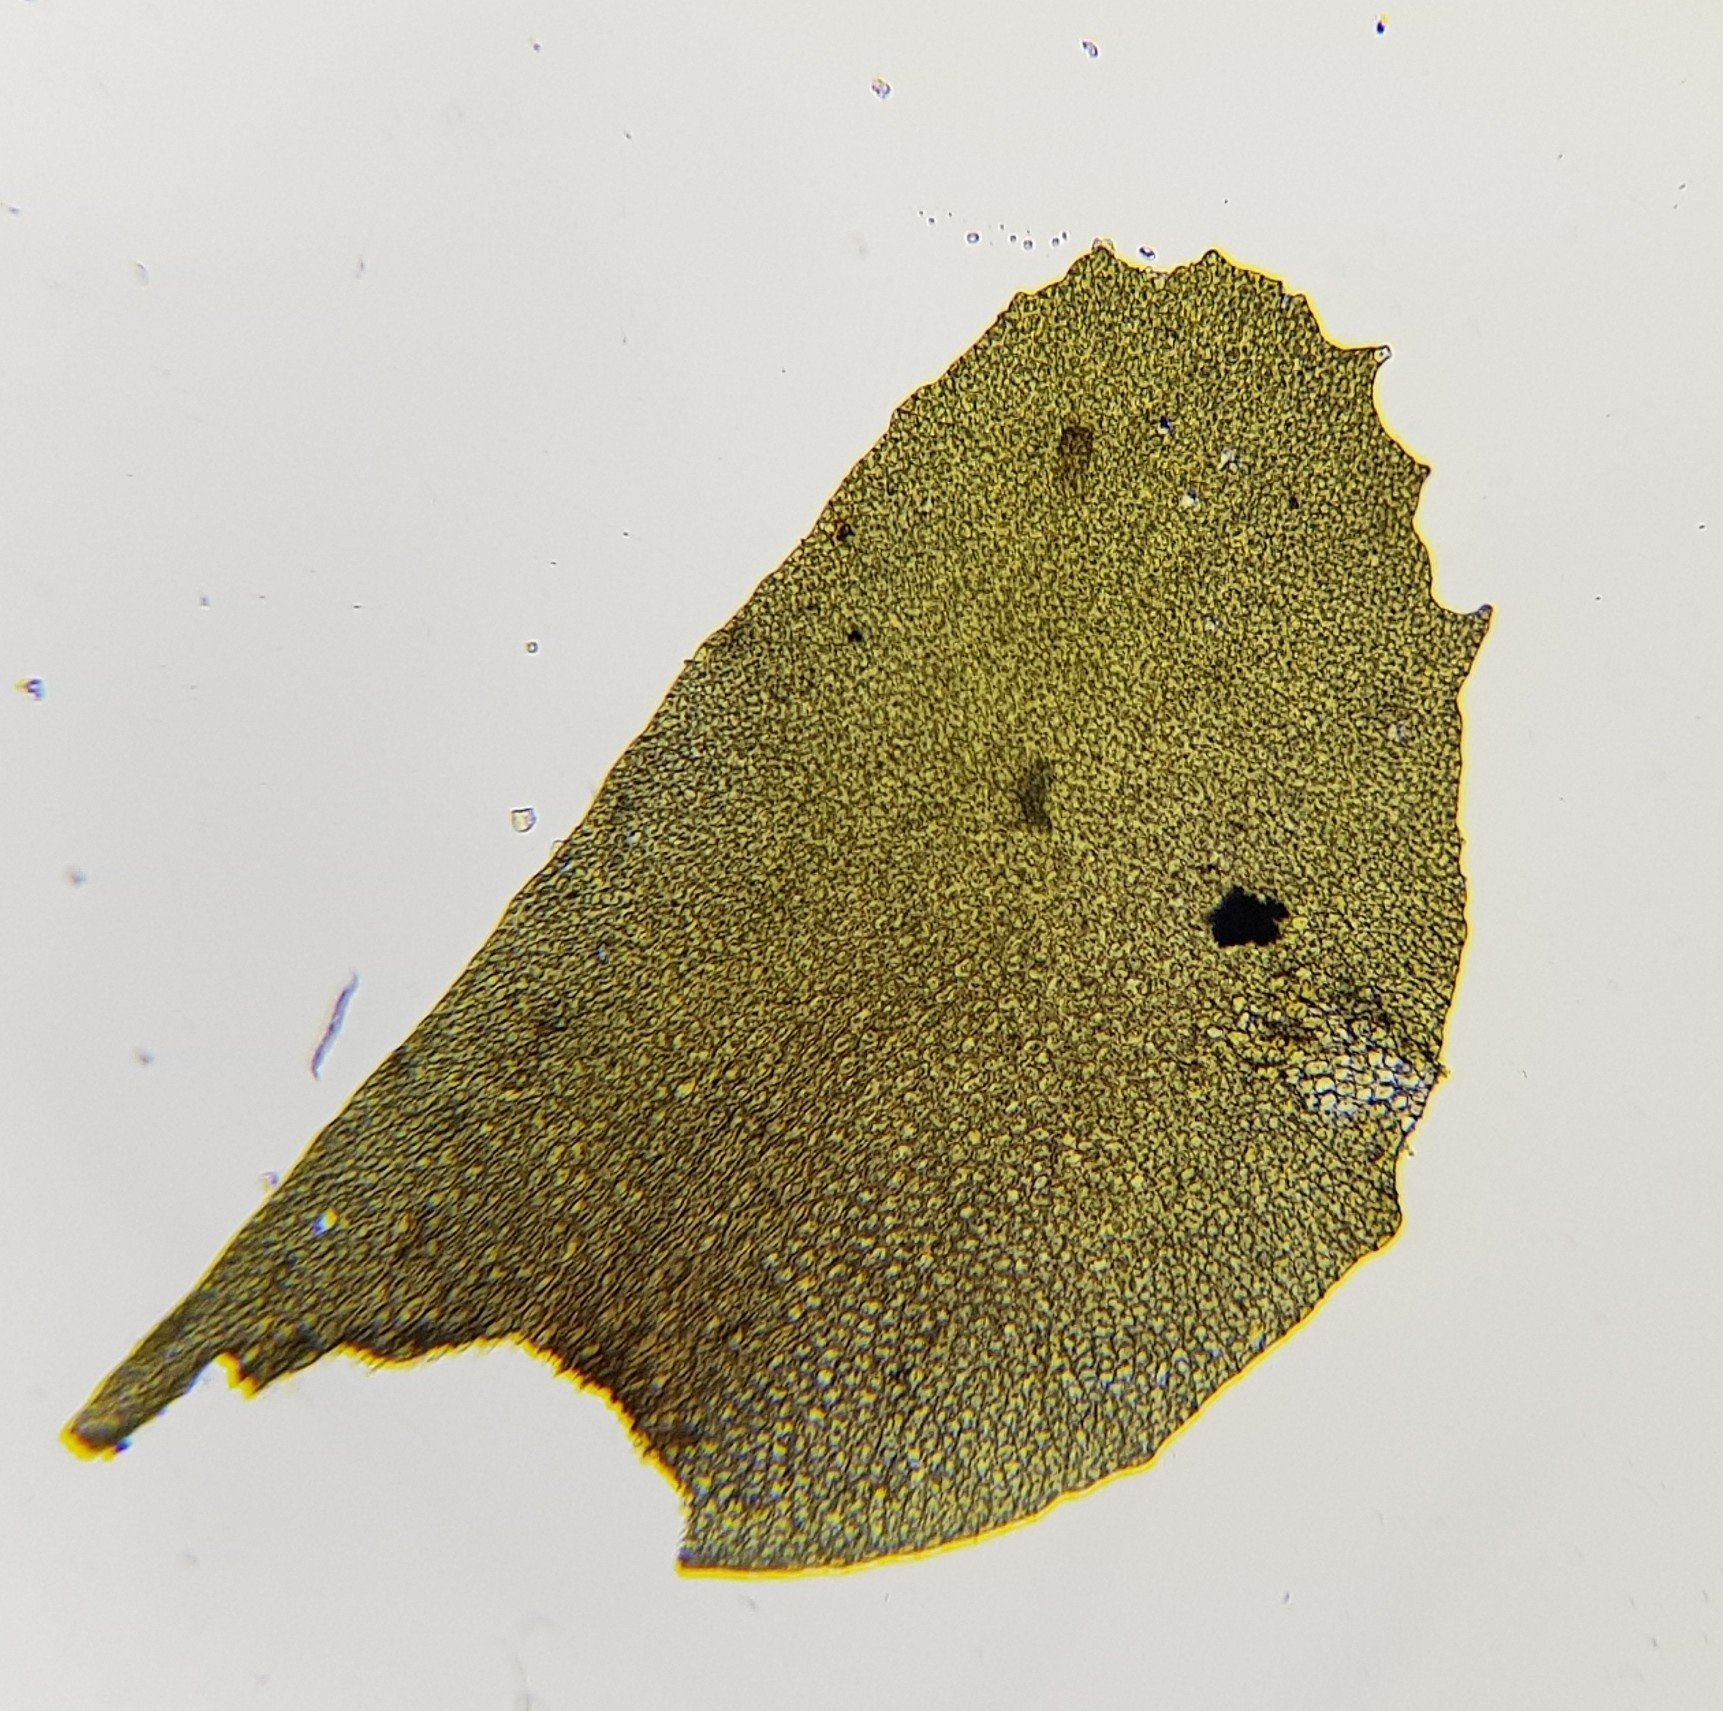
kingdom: Plantae
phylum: Marchantiophyta
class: Jungermanniopsida
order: Jungermanniales
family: Plagiochilaceae
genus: Plagiochila
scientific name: Plagiochila spinulosa
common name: Prickly featherwort
